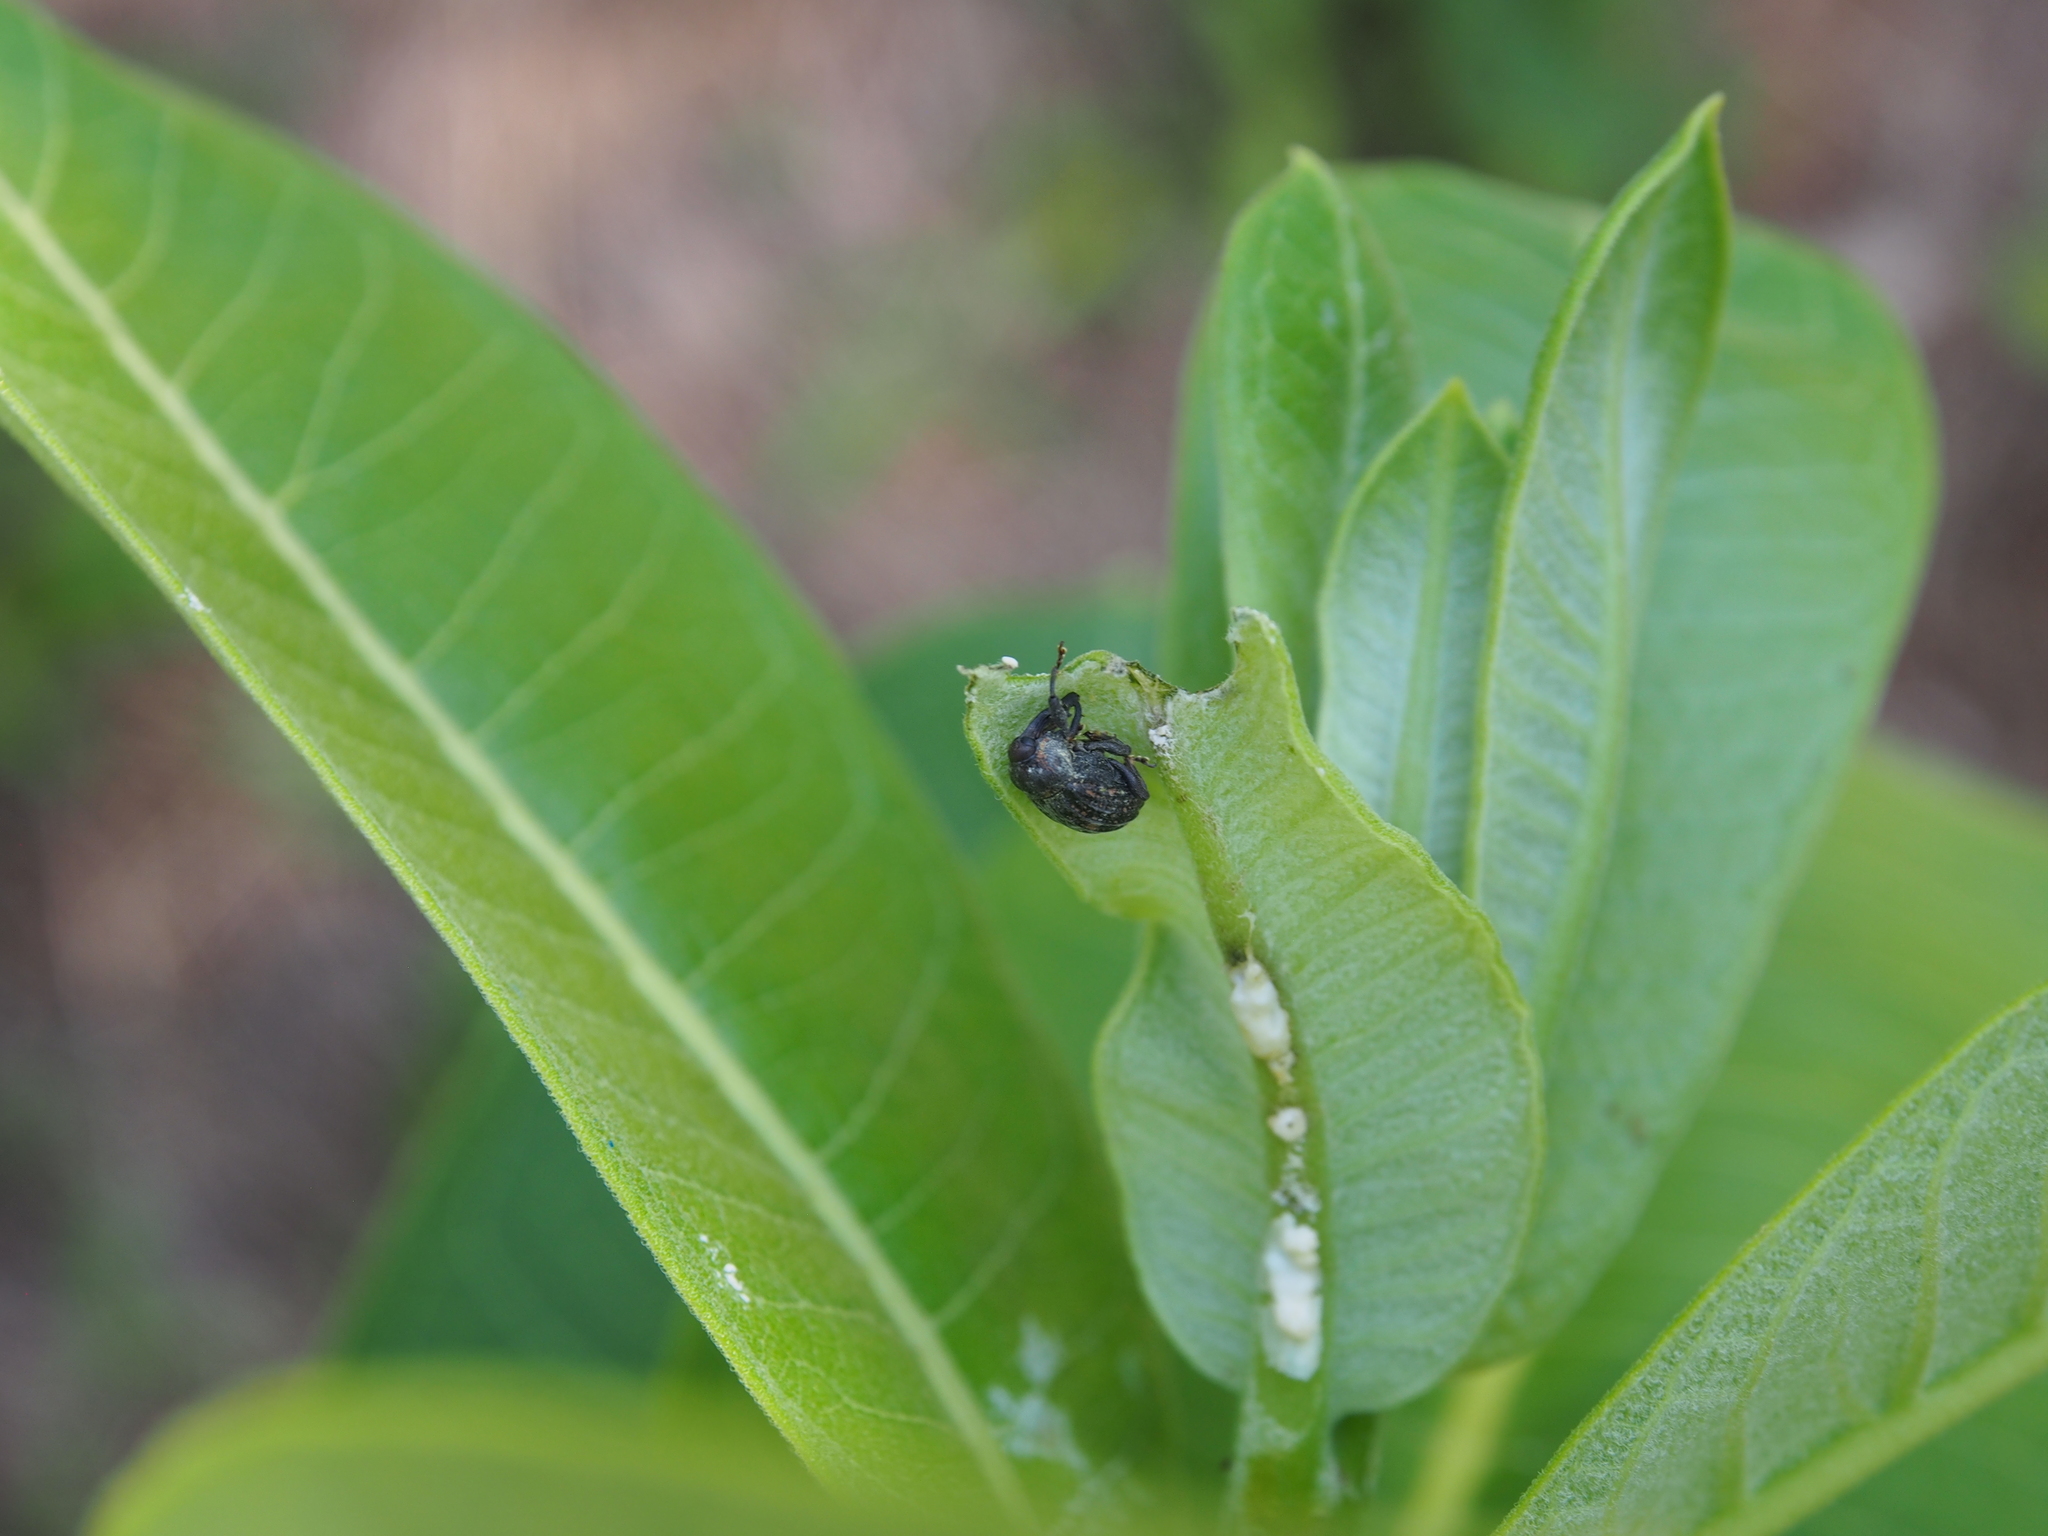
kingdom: Animalia
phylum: Arthropoda
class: Insecta
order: Coleoptera
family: Curculionidae
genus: Rhyssomatus
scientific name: Rhyssomatus aequalis
